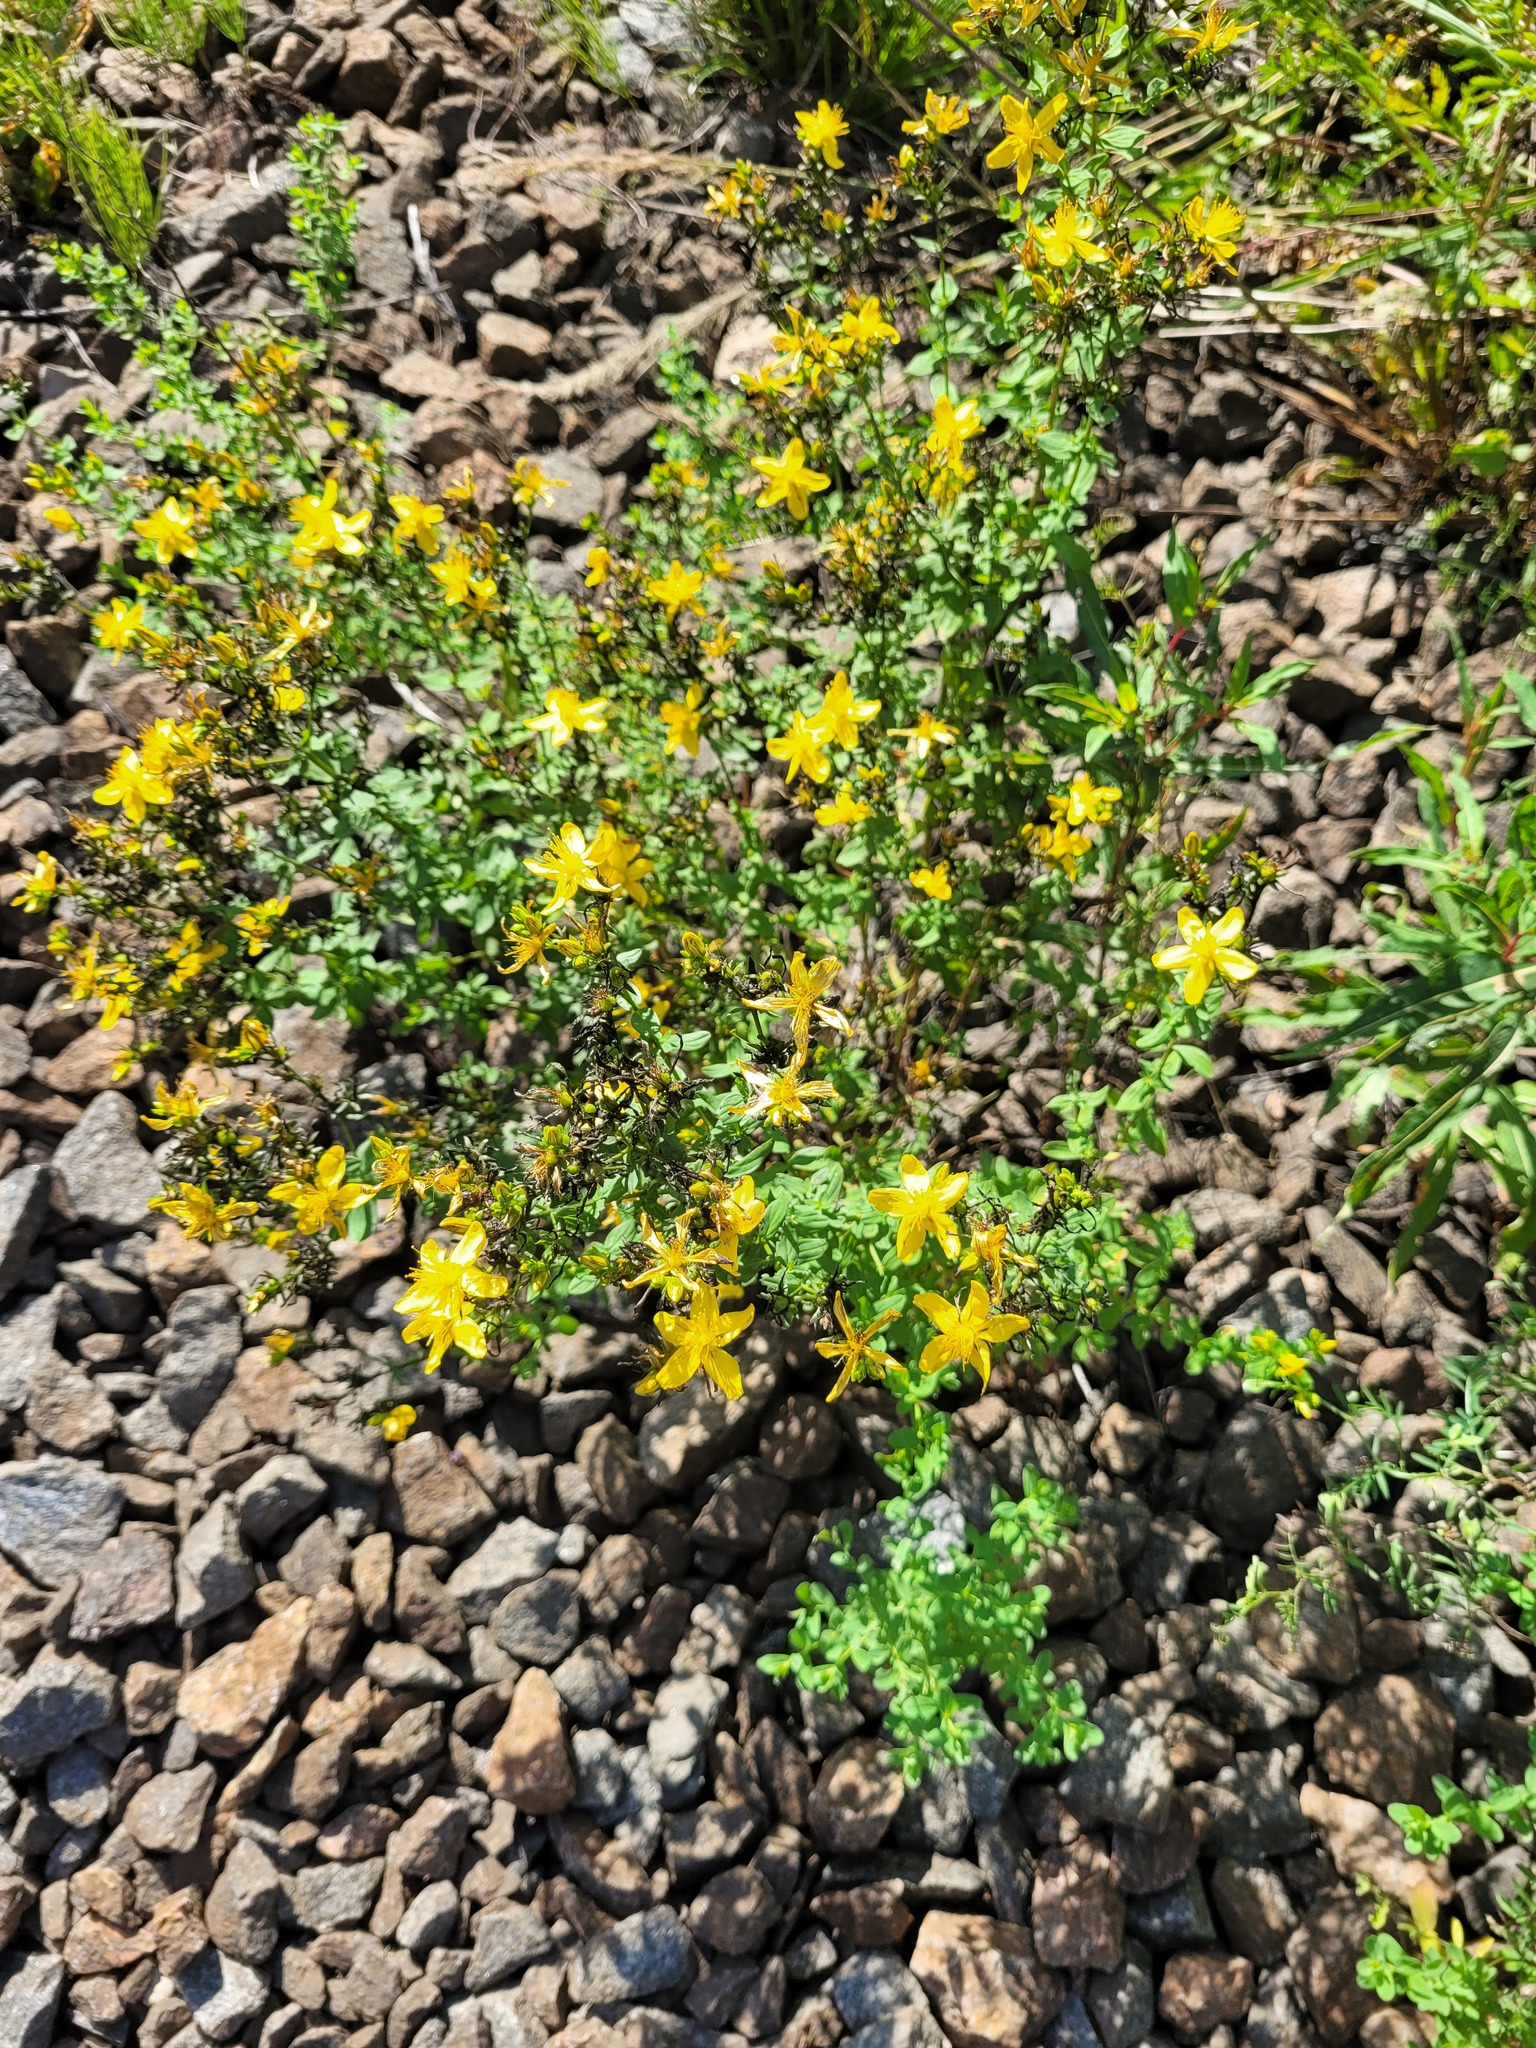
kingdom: Plantae
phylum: Tracheophyta
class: Magnoliopsida
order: Malpighiales
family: Hypericaceae
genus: Hypericum
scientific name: Hypericum perforatum
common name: Common st. johnswort
